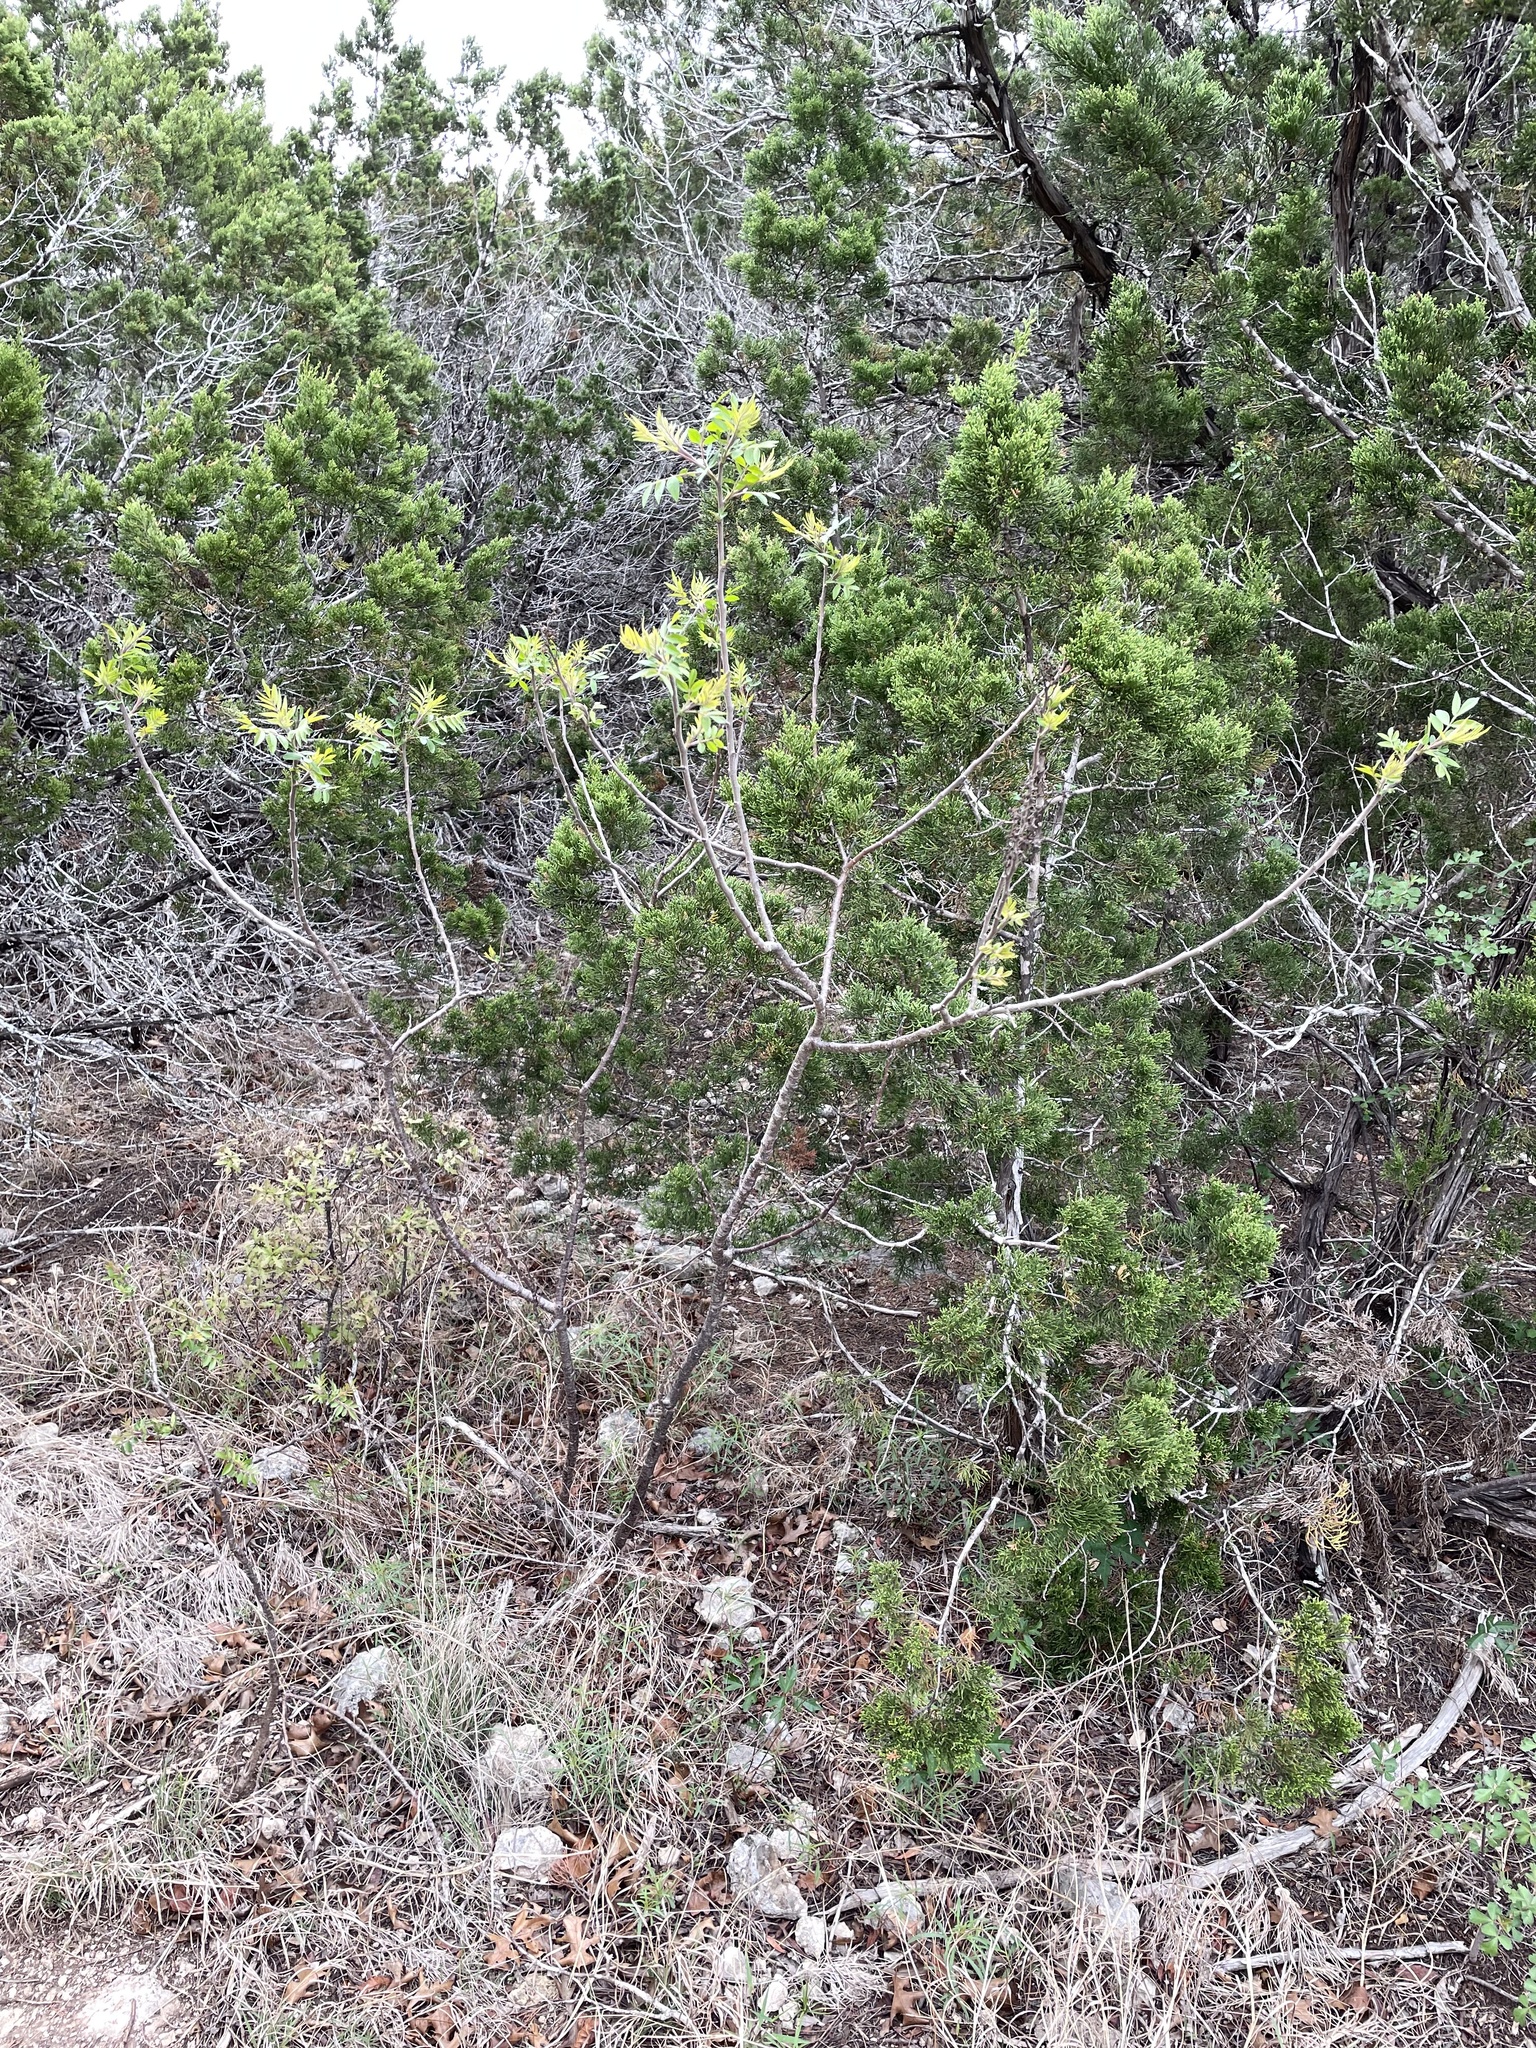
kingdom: Plantae
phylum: Tracheophyta
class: Magnoliopsida
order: Sapindales
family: Anacardiaceae
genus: Rhus
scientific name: Rhus lanceolata
